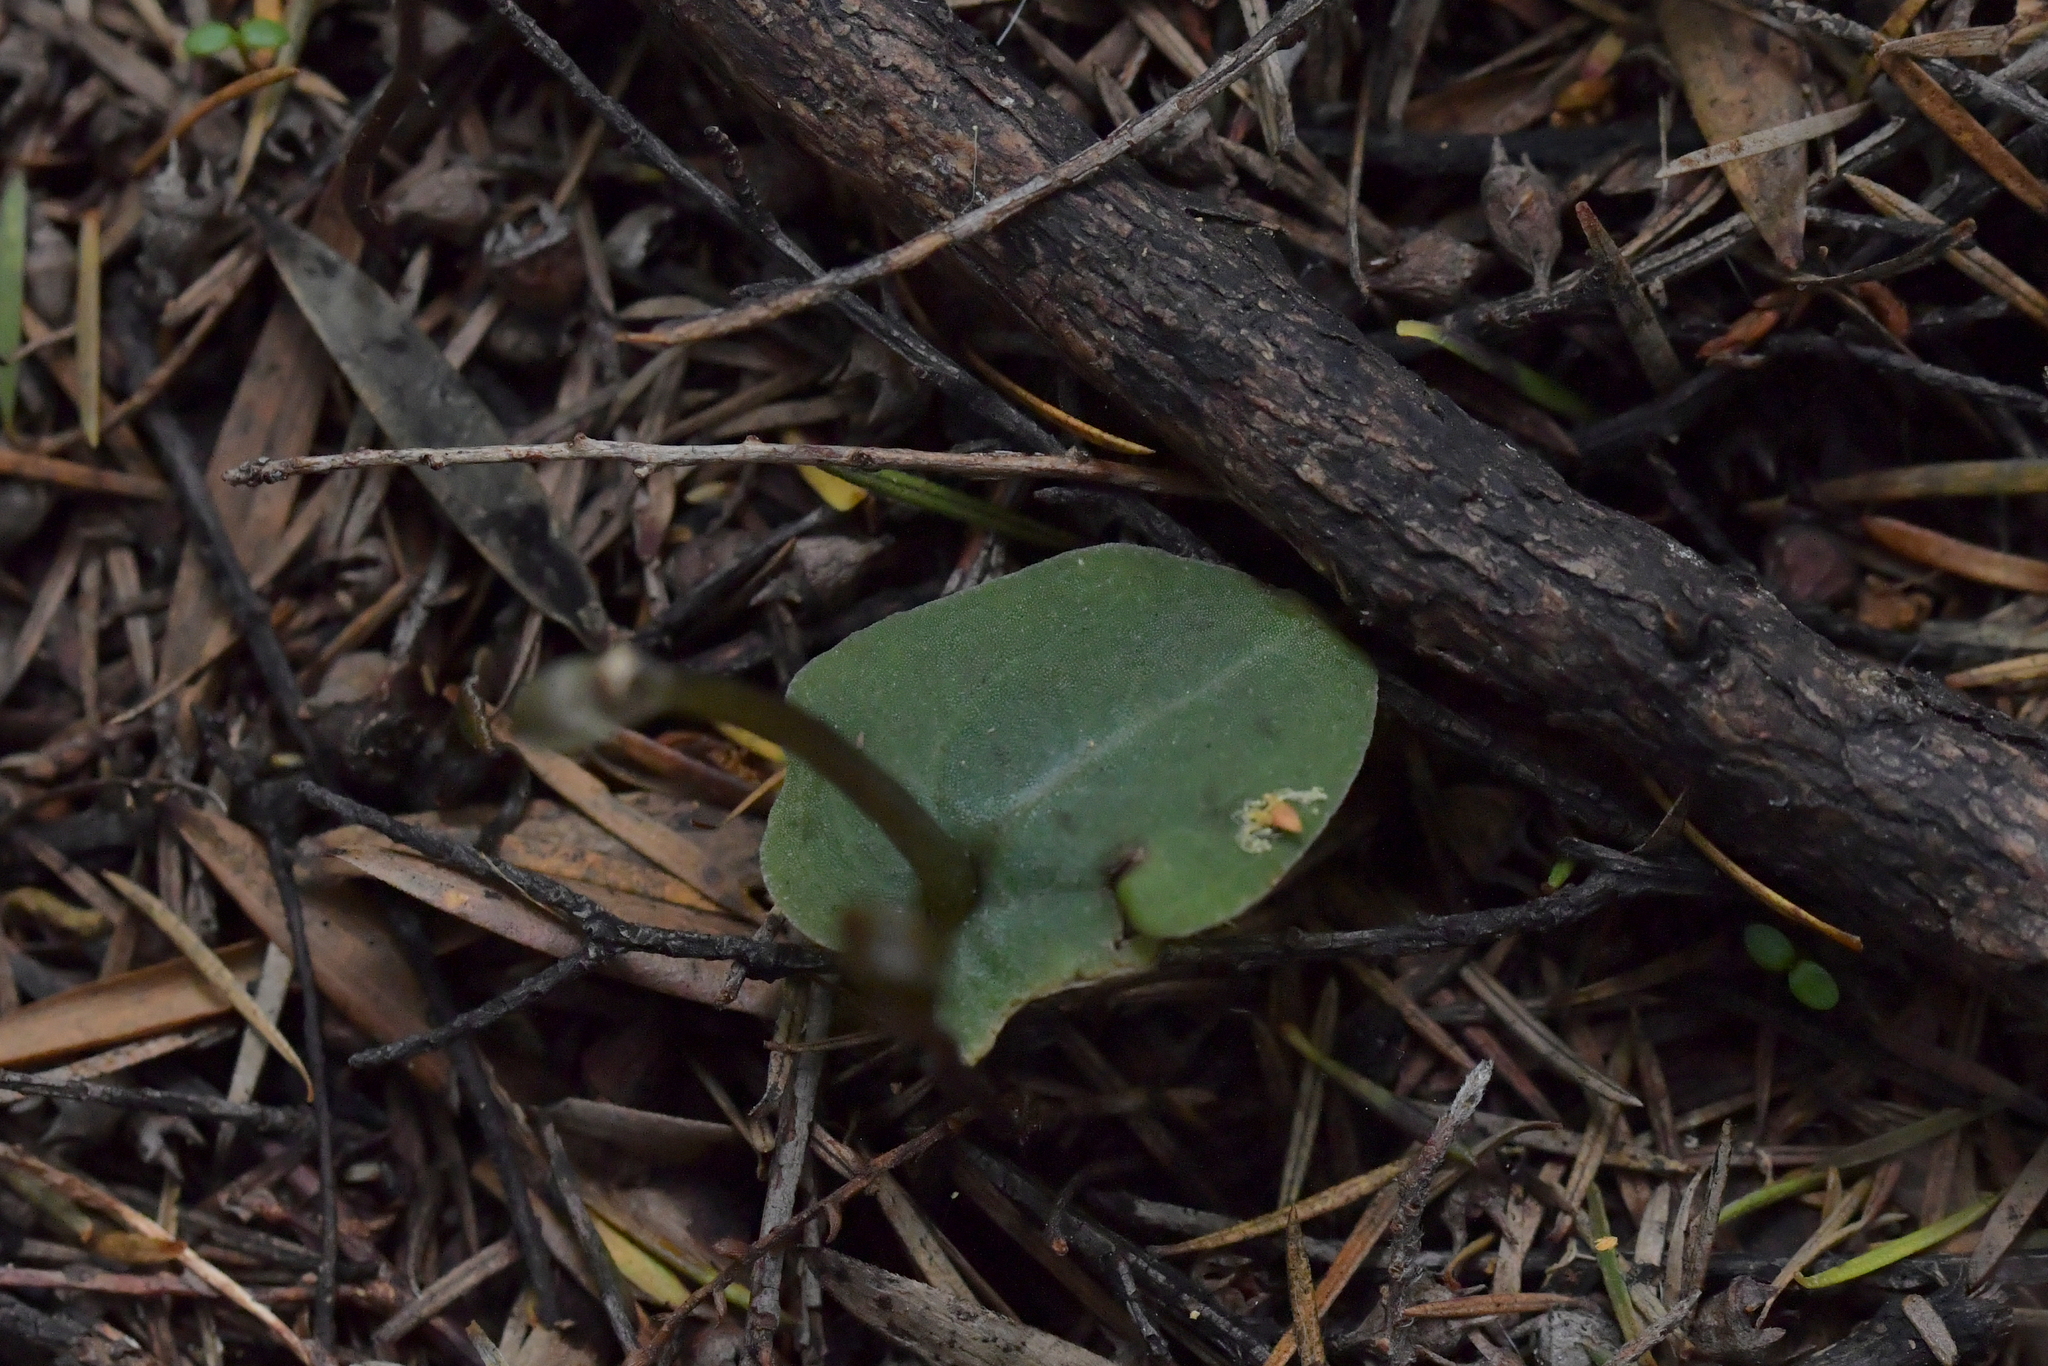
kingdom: Plantae
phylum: Tracheophyta
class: Liliopsida
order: Asparagales
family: Orchidaceae
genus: Corybas
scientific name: Corybas rotundifolius
